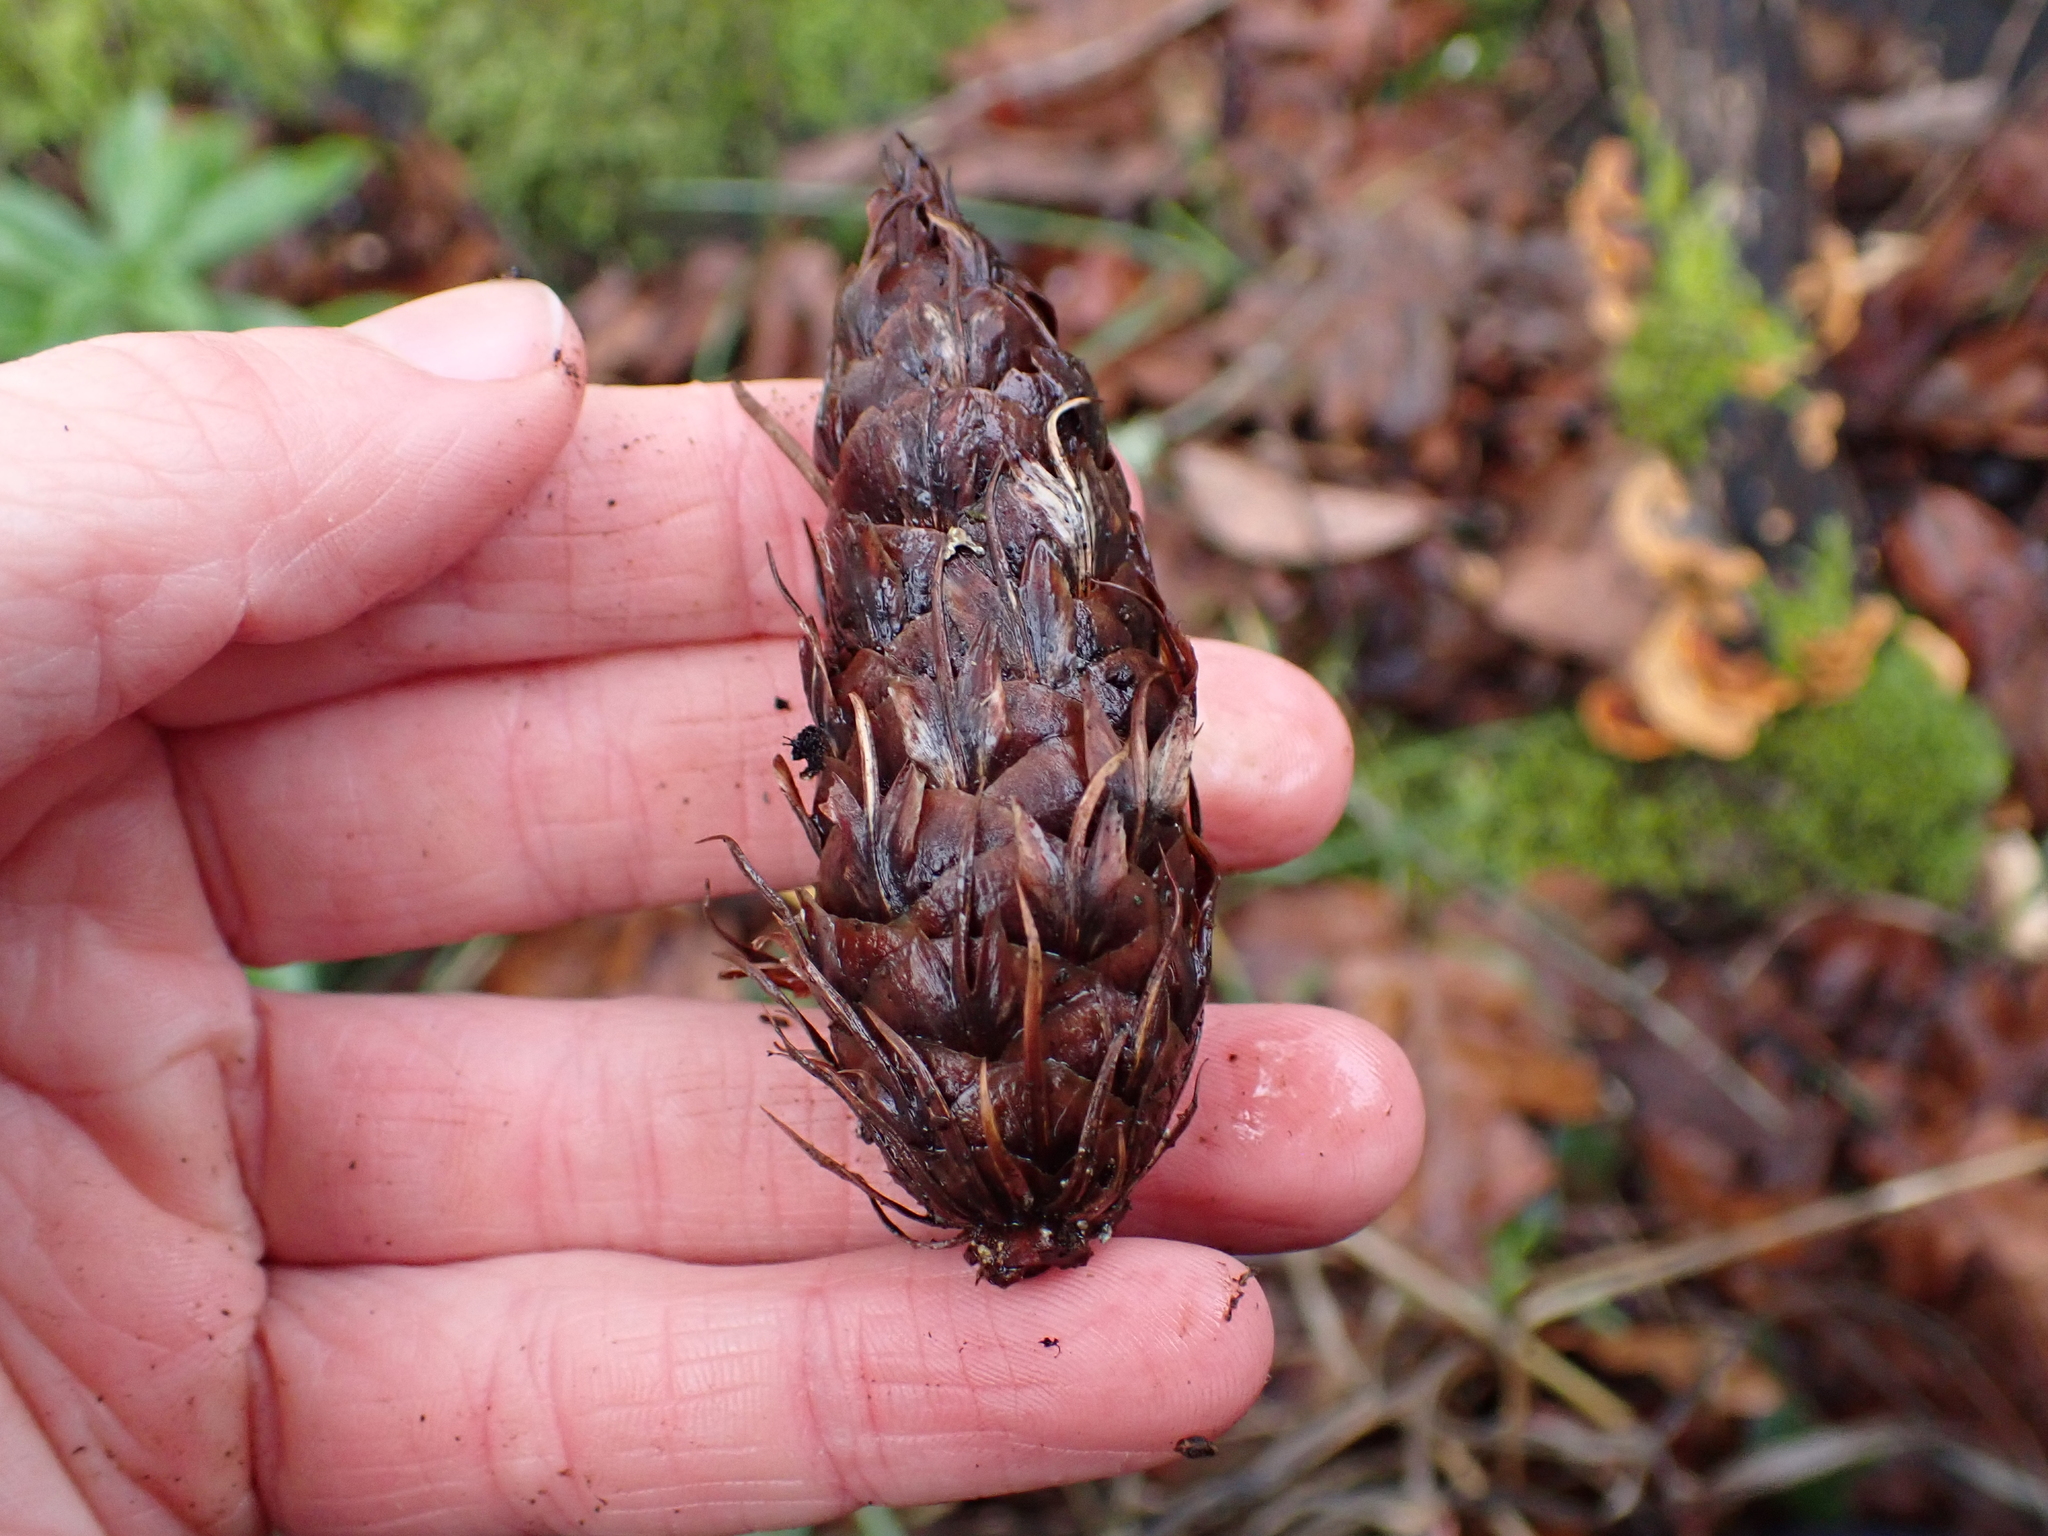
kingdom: Plantae
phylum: Tracheophyta
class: Pinopsida
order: Pinales
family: Pinaceae
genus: Pseudotsuga
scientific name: Pseudotsuga menziesii
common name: Douglas fir
